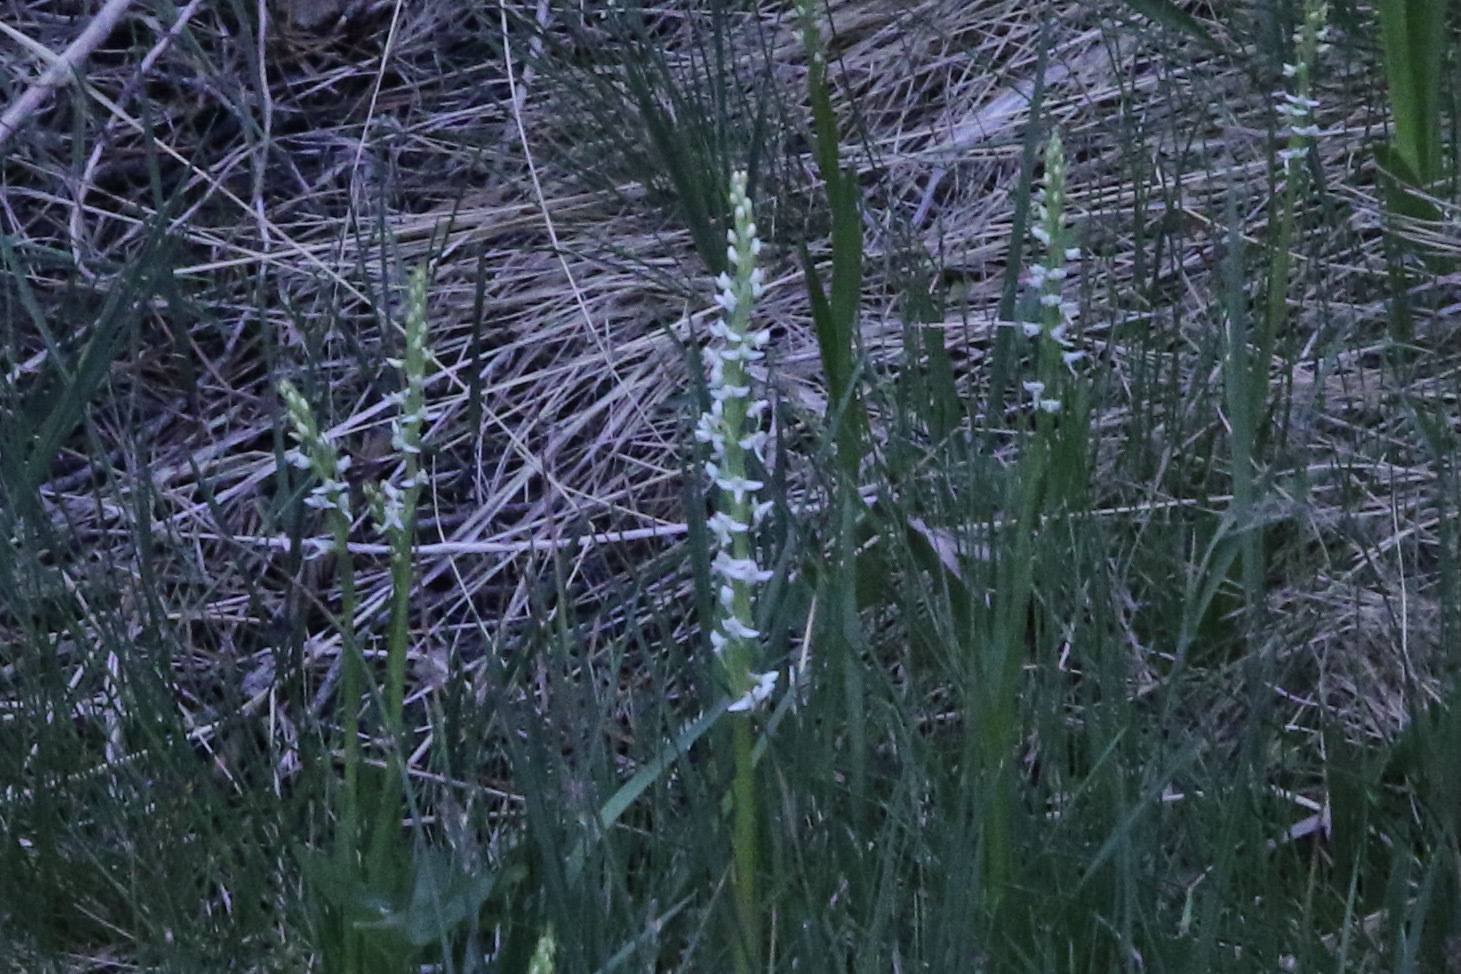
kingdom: Plantae
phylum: Tracheophyta
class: Liliopsida
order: Asparagales
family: Orchidaceae
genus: Platanthera
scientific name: Platanthera dilatata
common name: Bog candles
